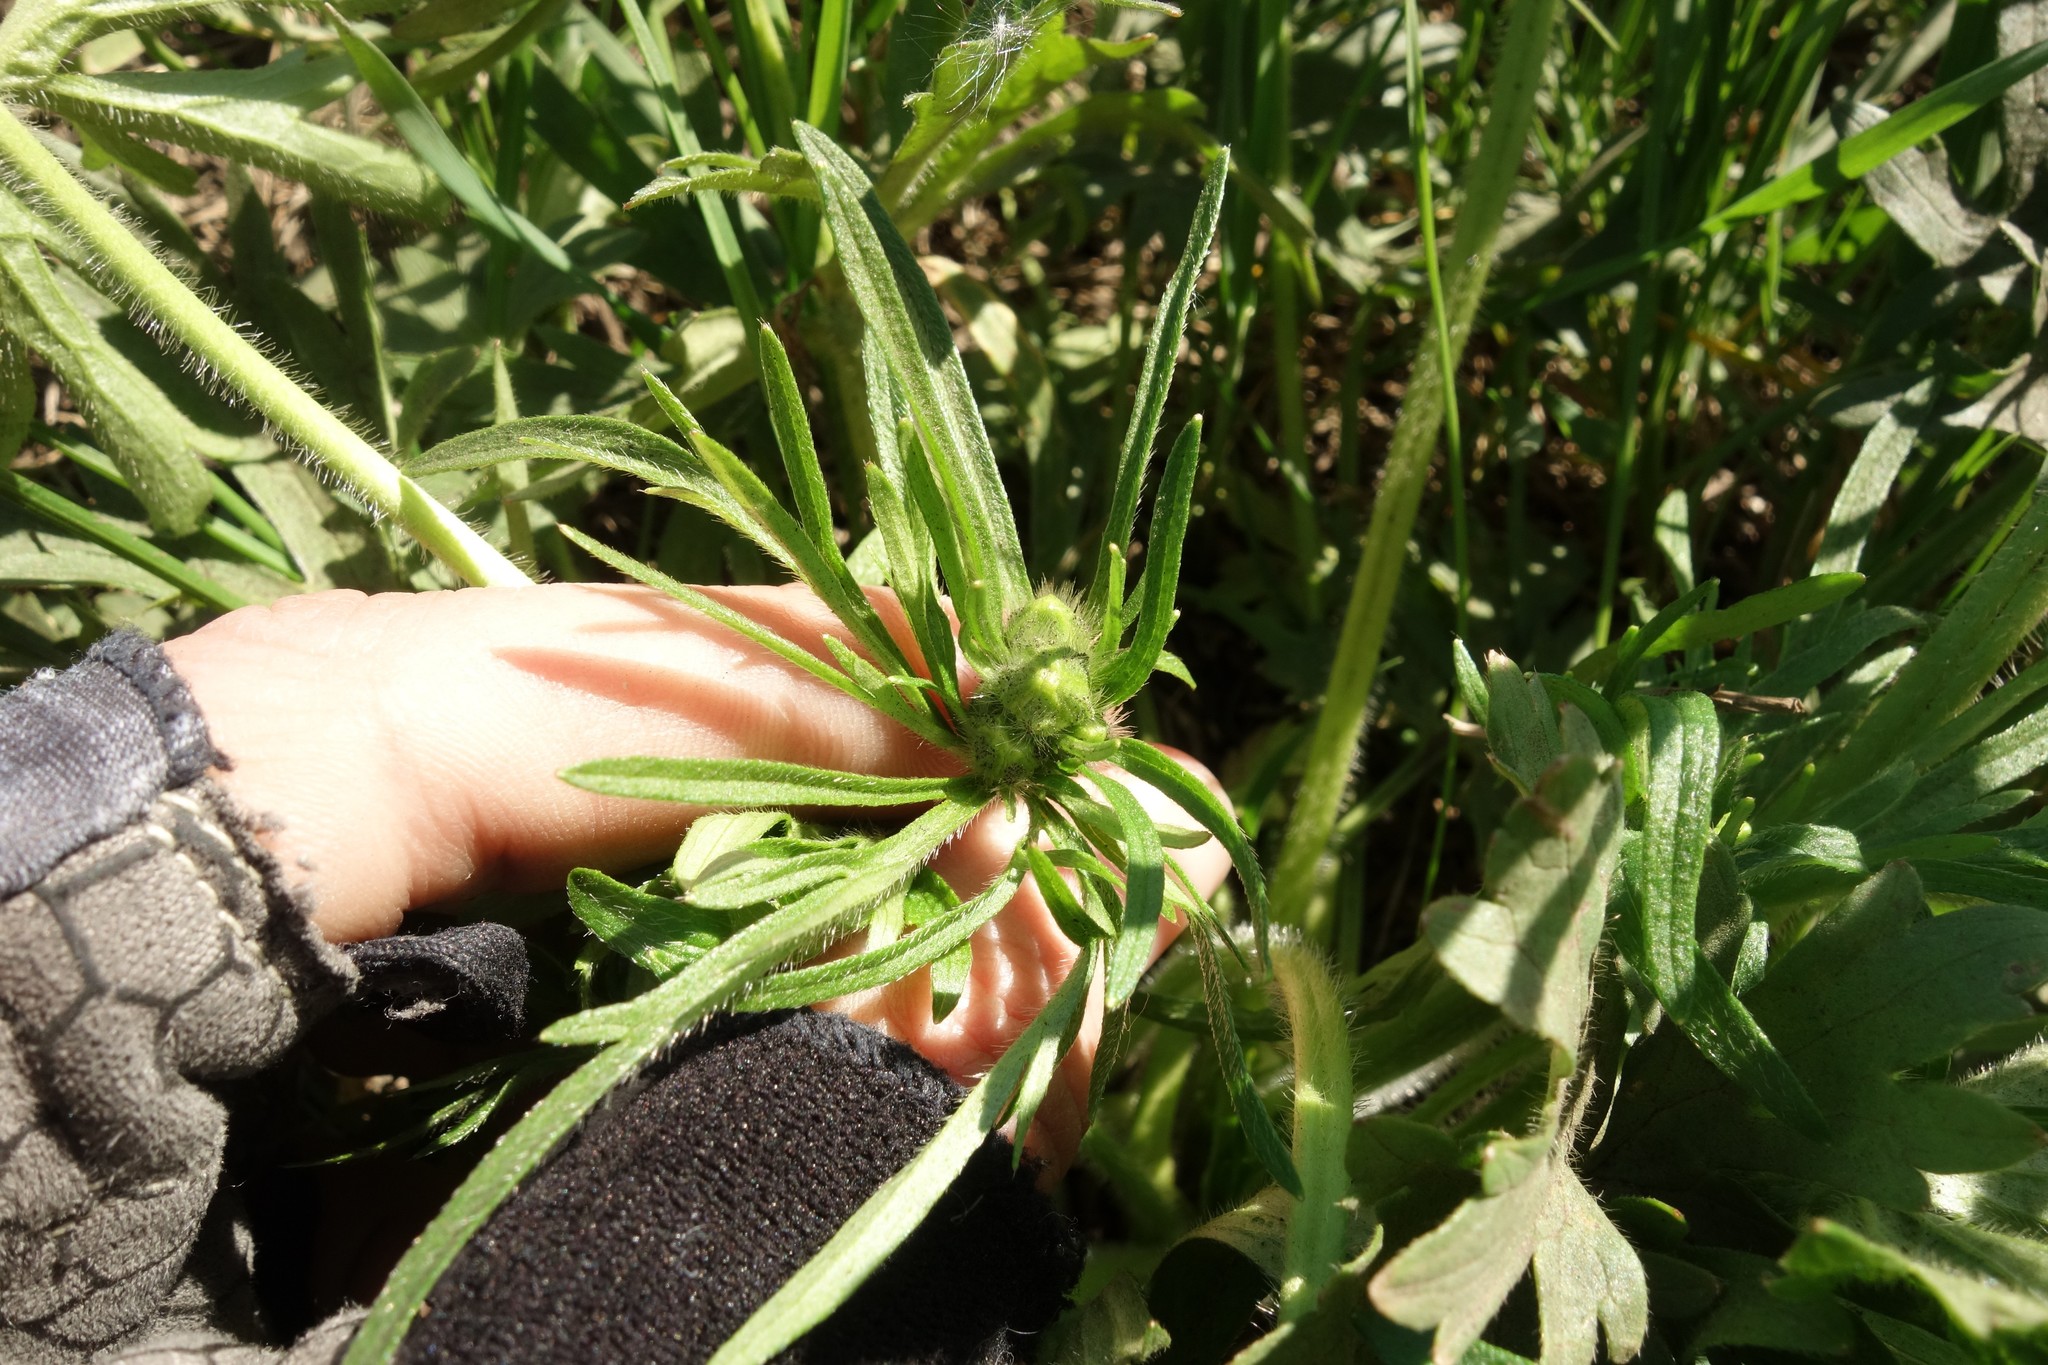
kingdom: Plantae
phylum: Tracheophyta
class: Magnoliopsida
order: Ranunculales
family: Ranunculaceae
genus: Ranunculus
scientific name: Ranunculus polyanthemos
